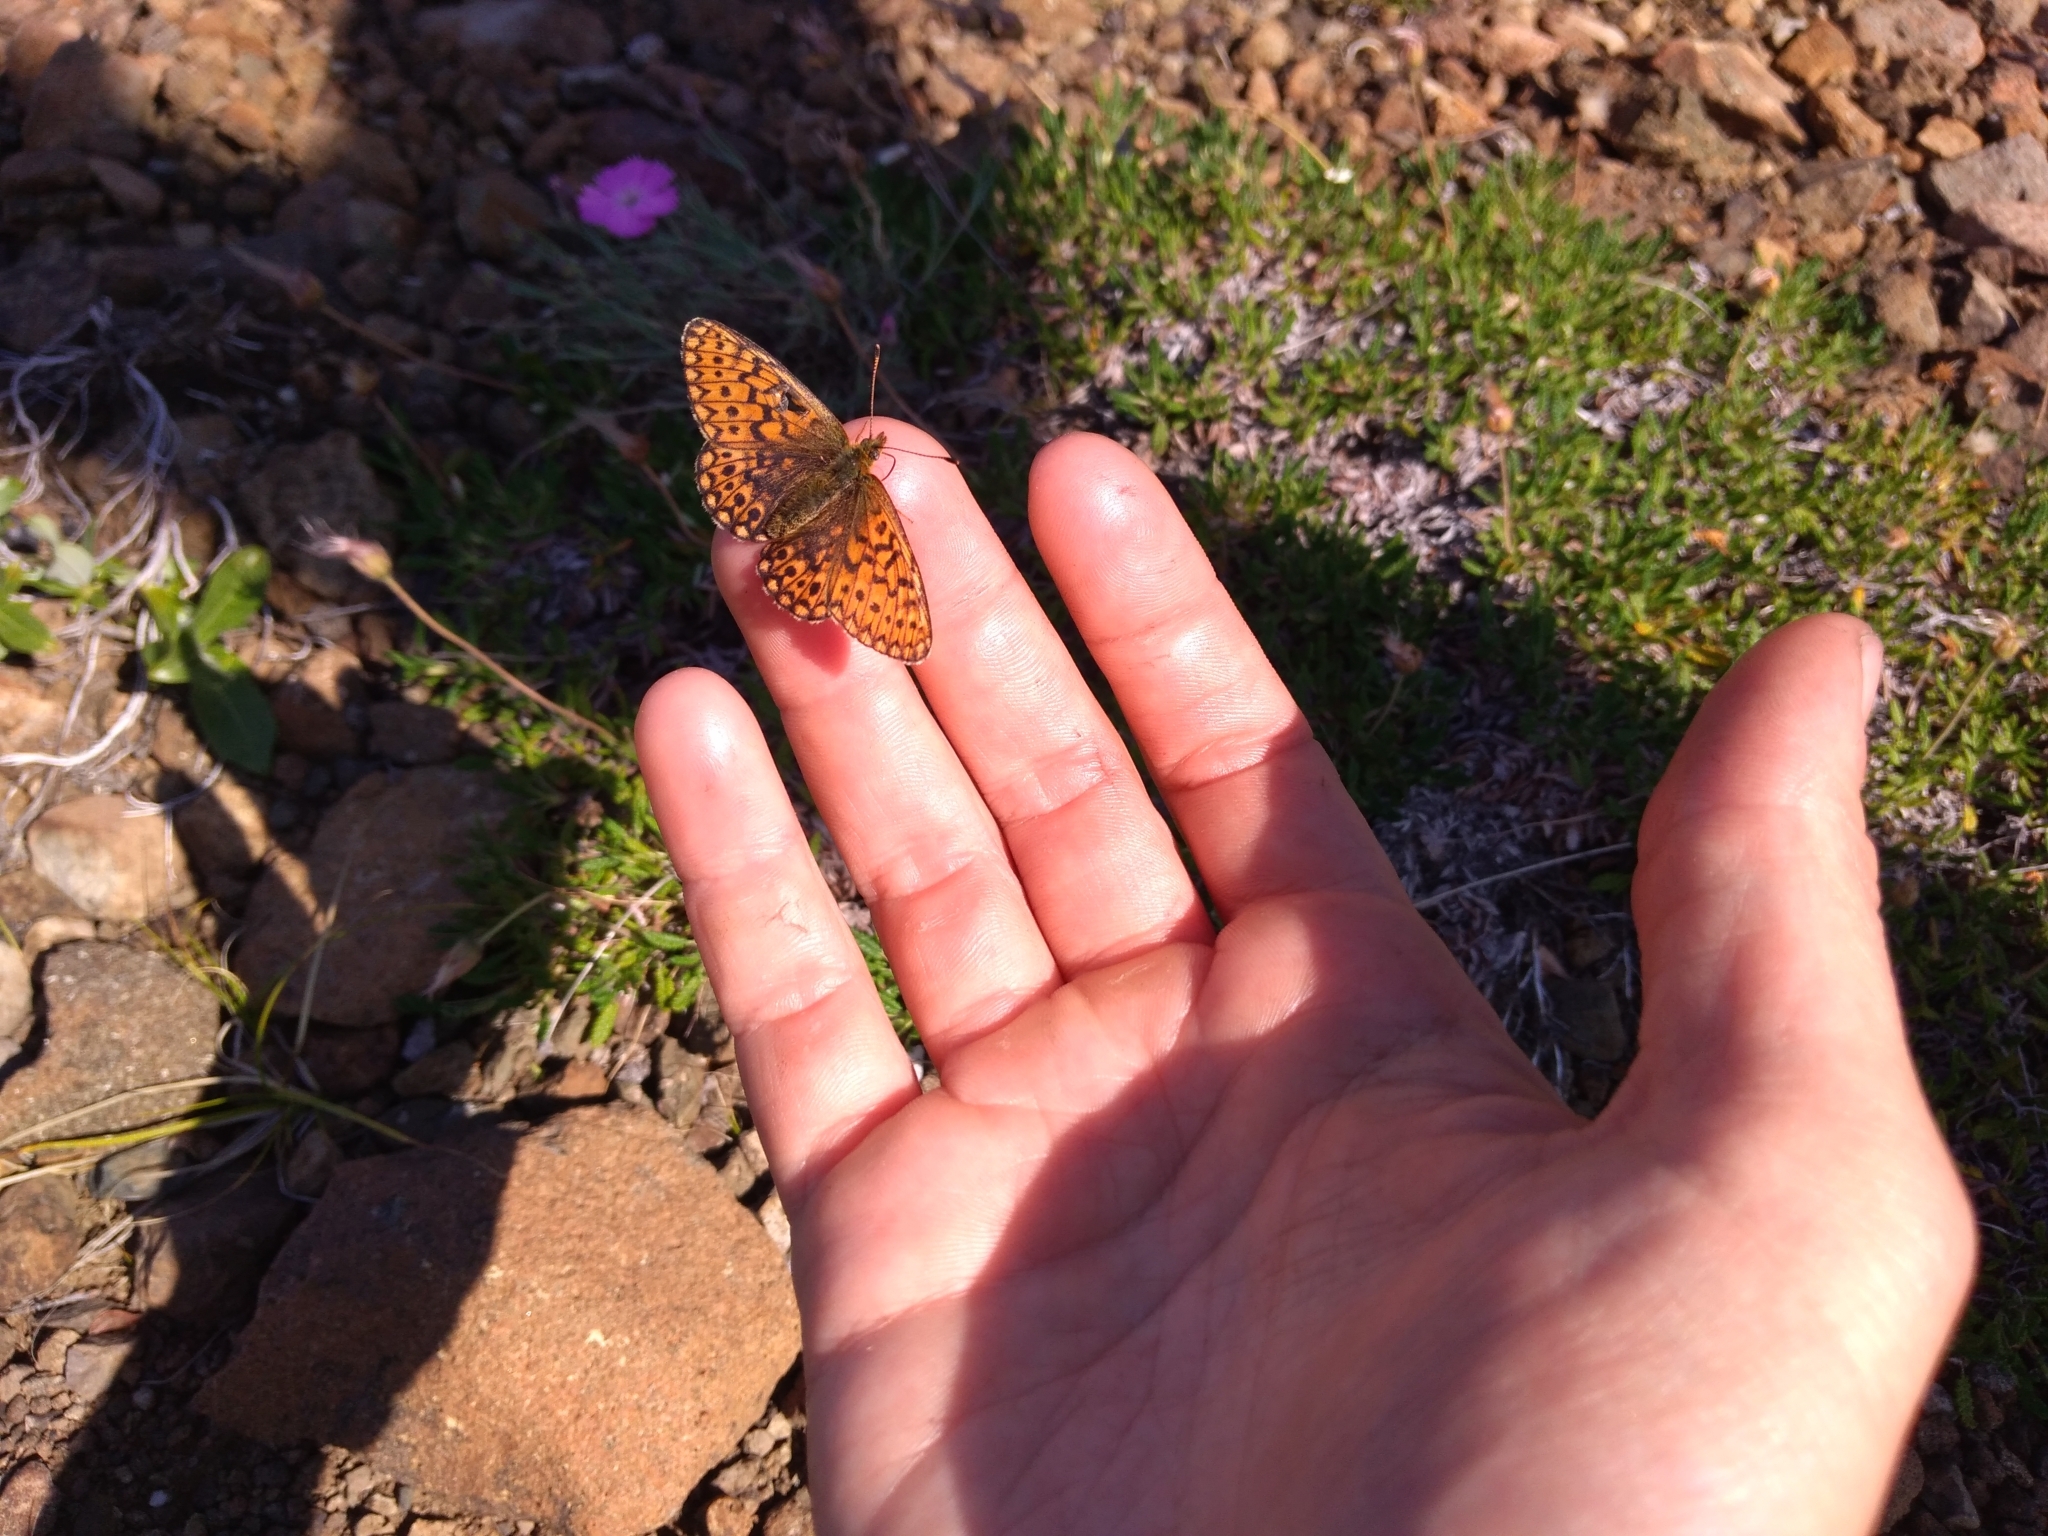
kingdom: Animalia
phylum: Arthropoda
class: Insecta
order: Lepidoptera
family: Nymphalidae
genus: Boloria
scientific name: Boloria eunomia
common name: Bog fritillary
